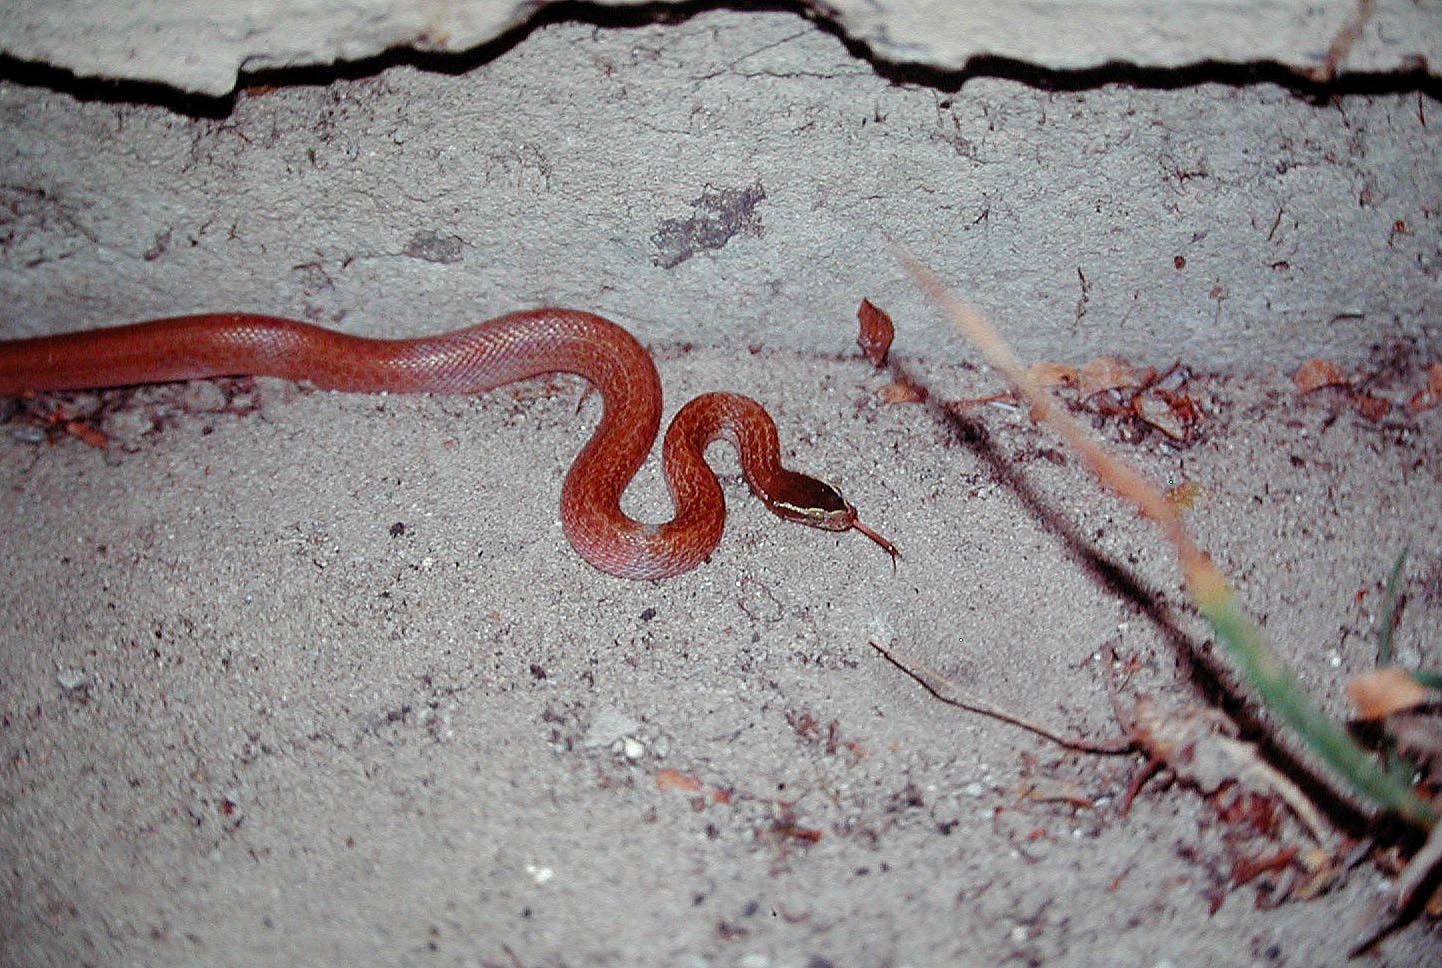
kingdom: Animalia
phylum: Chordata
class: Squamata
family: Lamprophiidae
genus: Boaedon
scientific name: Boaedon capensis
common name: Brown house snake
